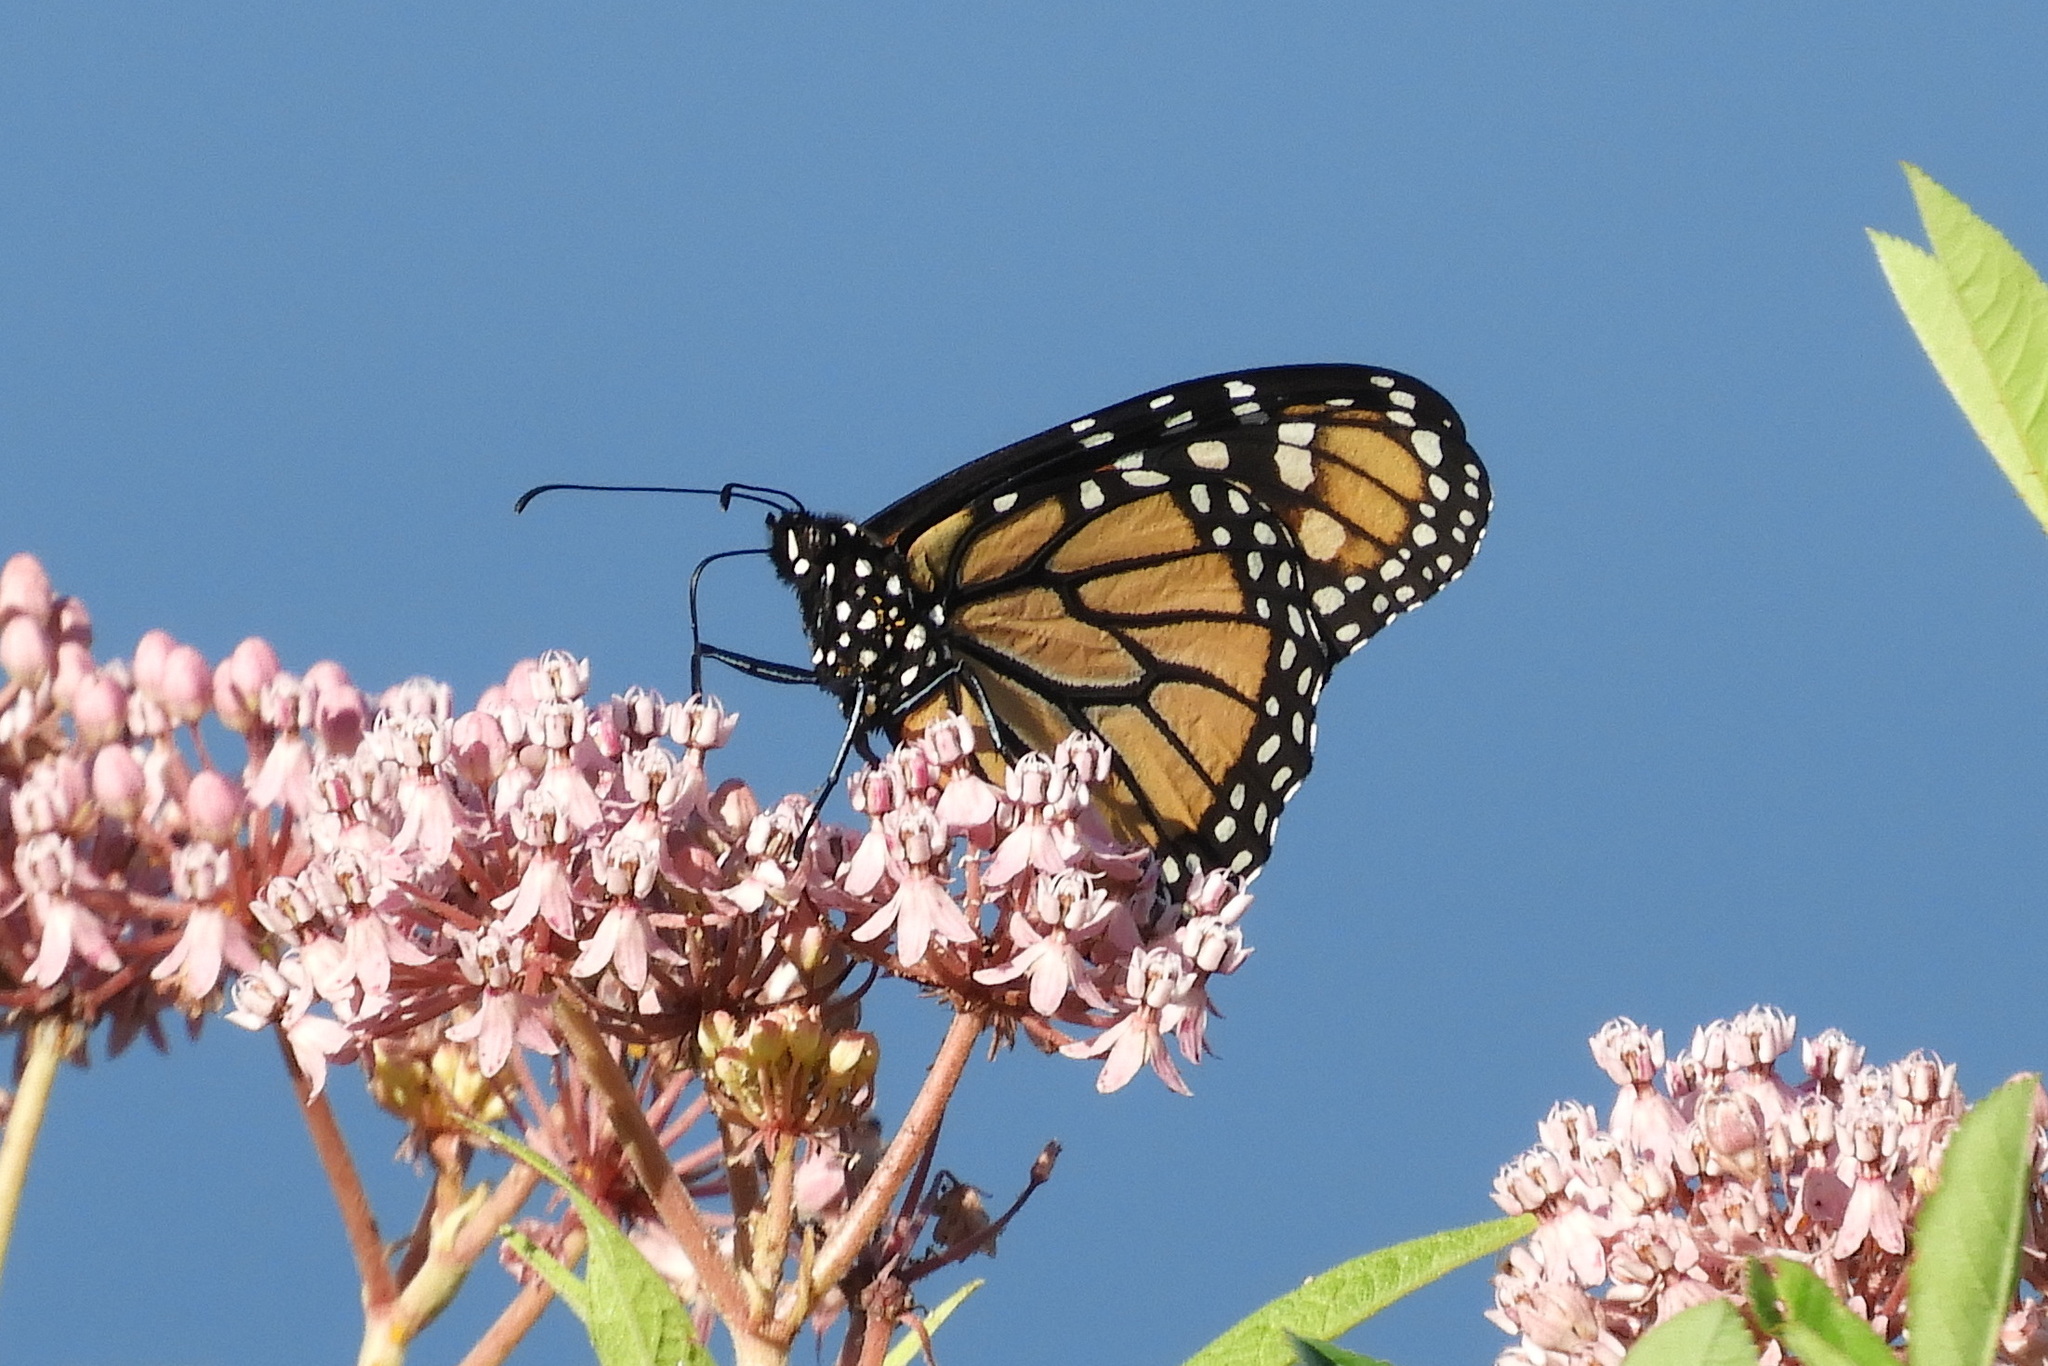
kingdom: Animalia
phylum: Arthropoda
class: Insecta
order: Lepidoptera
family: Nymphalidae
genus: Danaus
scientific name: Danaus plexippus
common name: Monarch
